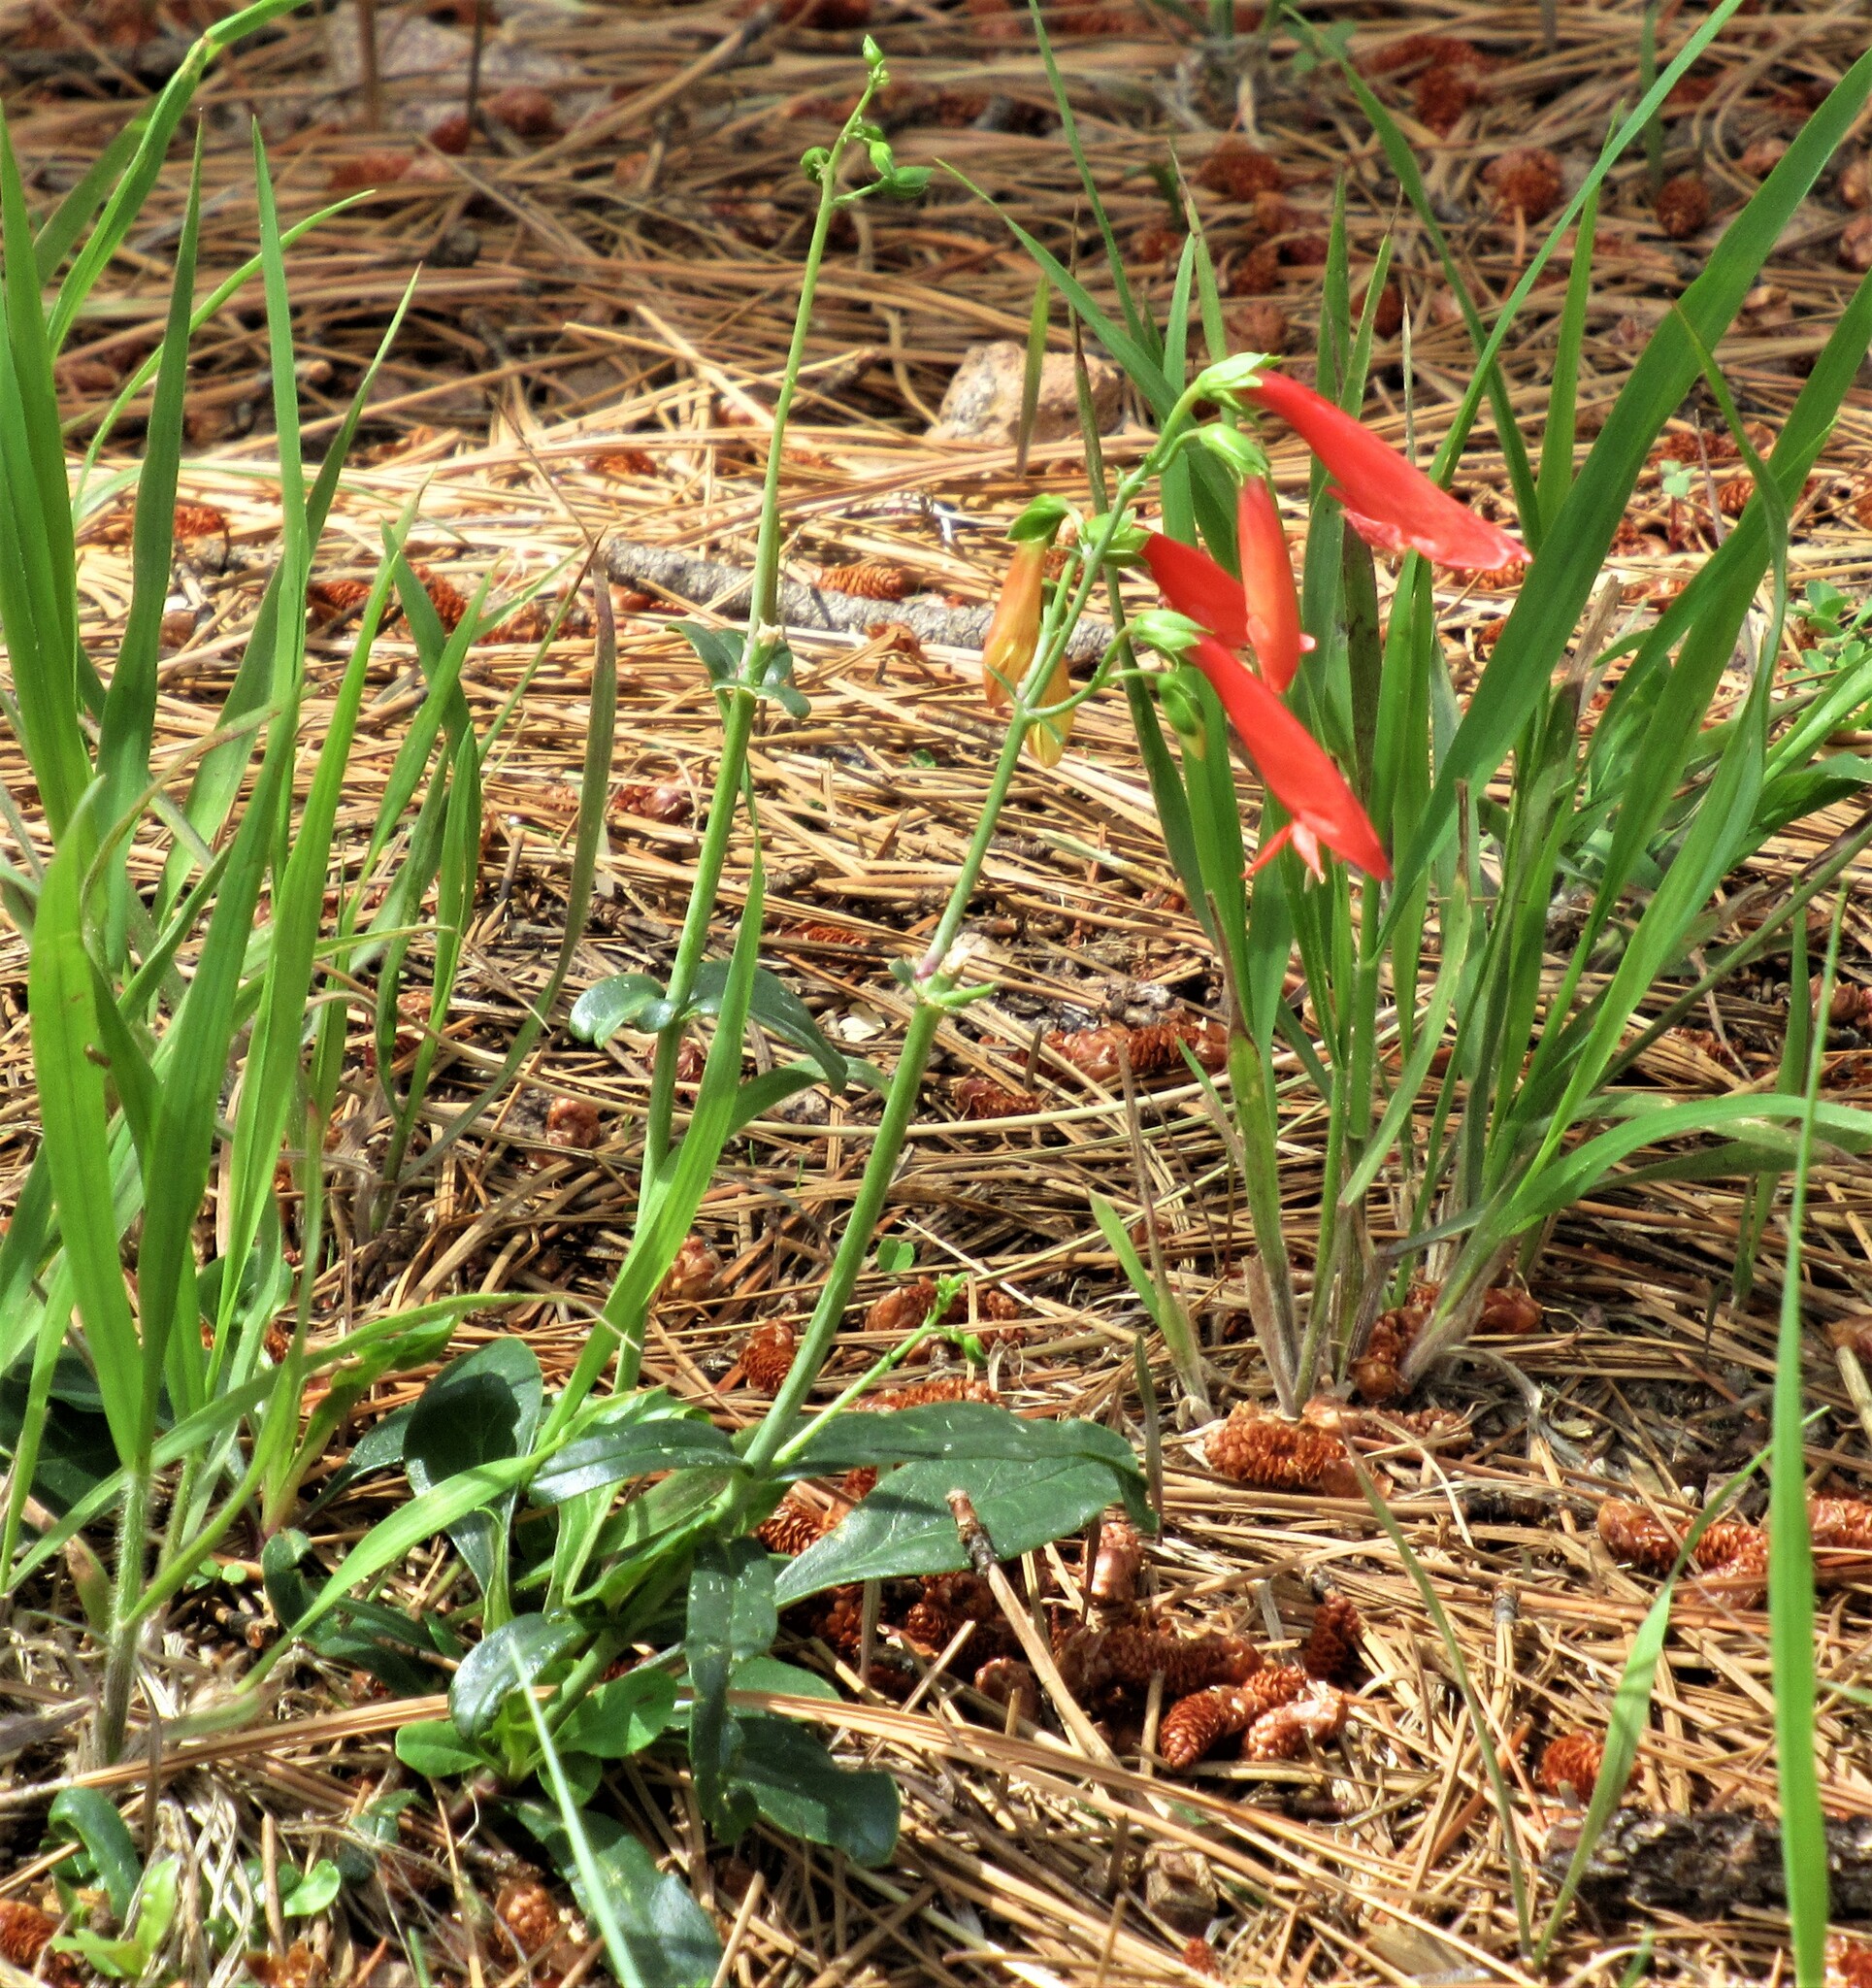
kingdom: Plantae
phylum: Tracheophyta
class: Magnoliopsida
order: Lamiales
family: Plantaginaceae
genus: Penstemon
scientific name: Penstemon barbatus
